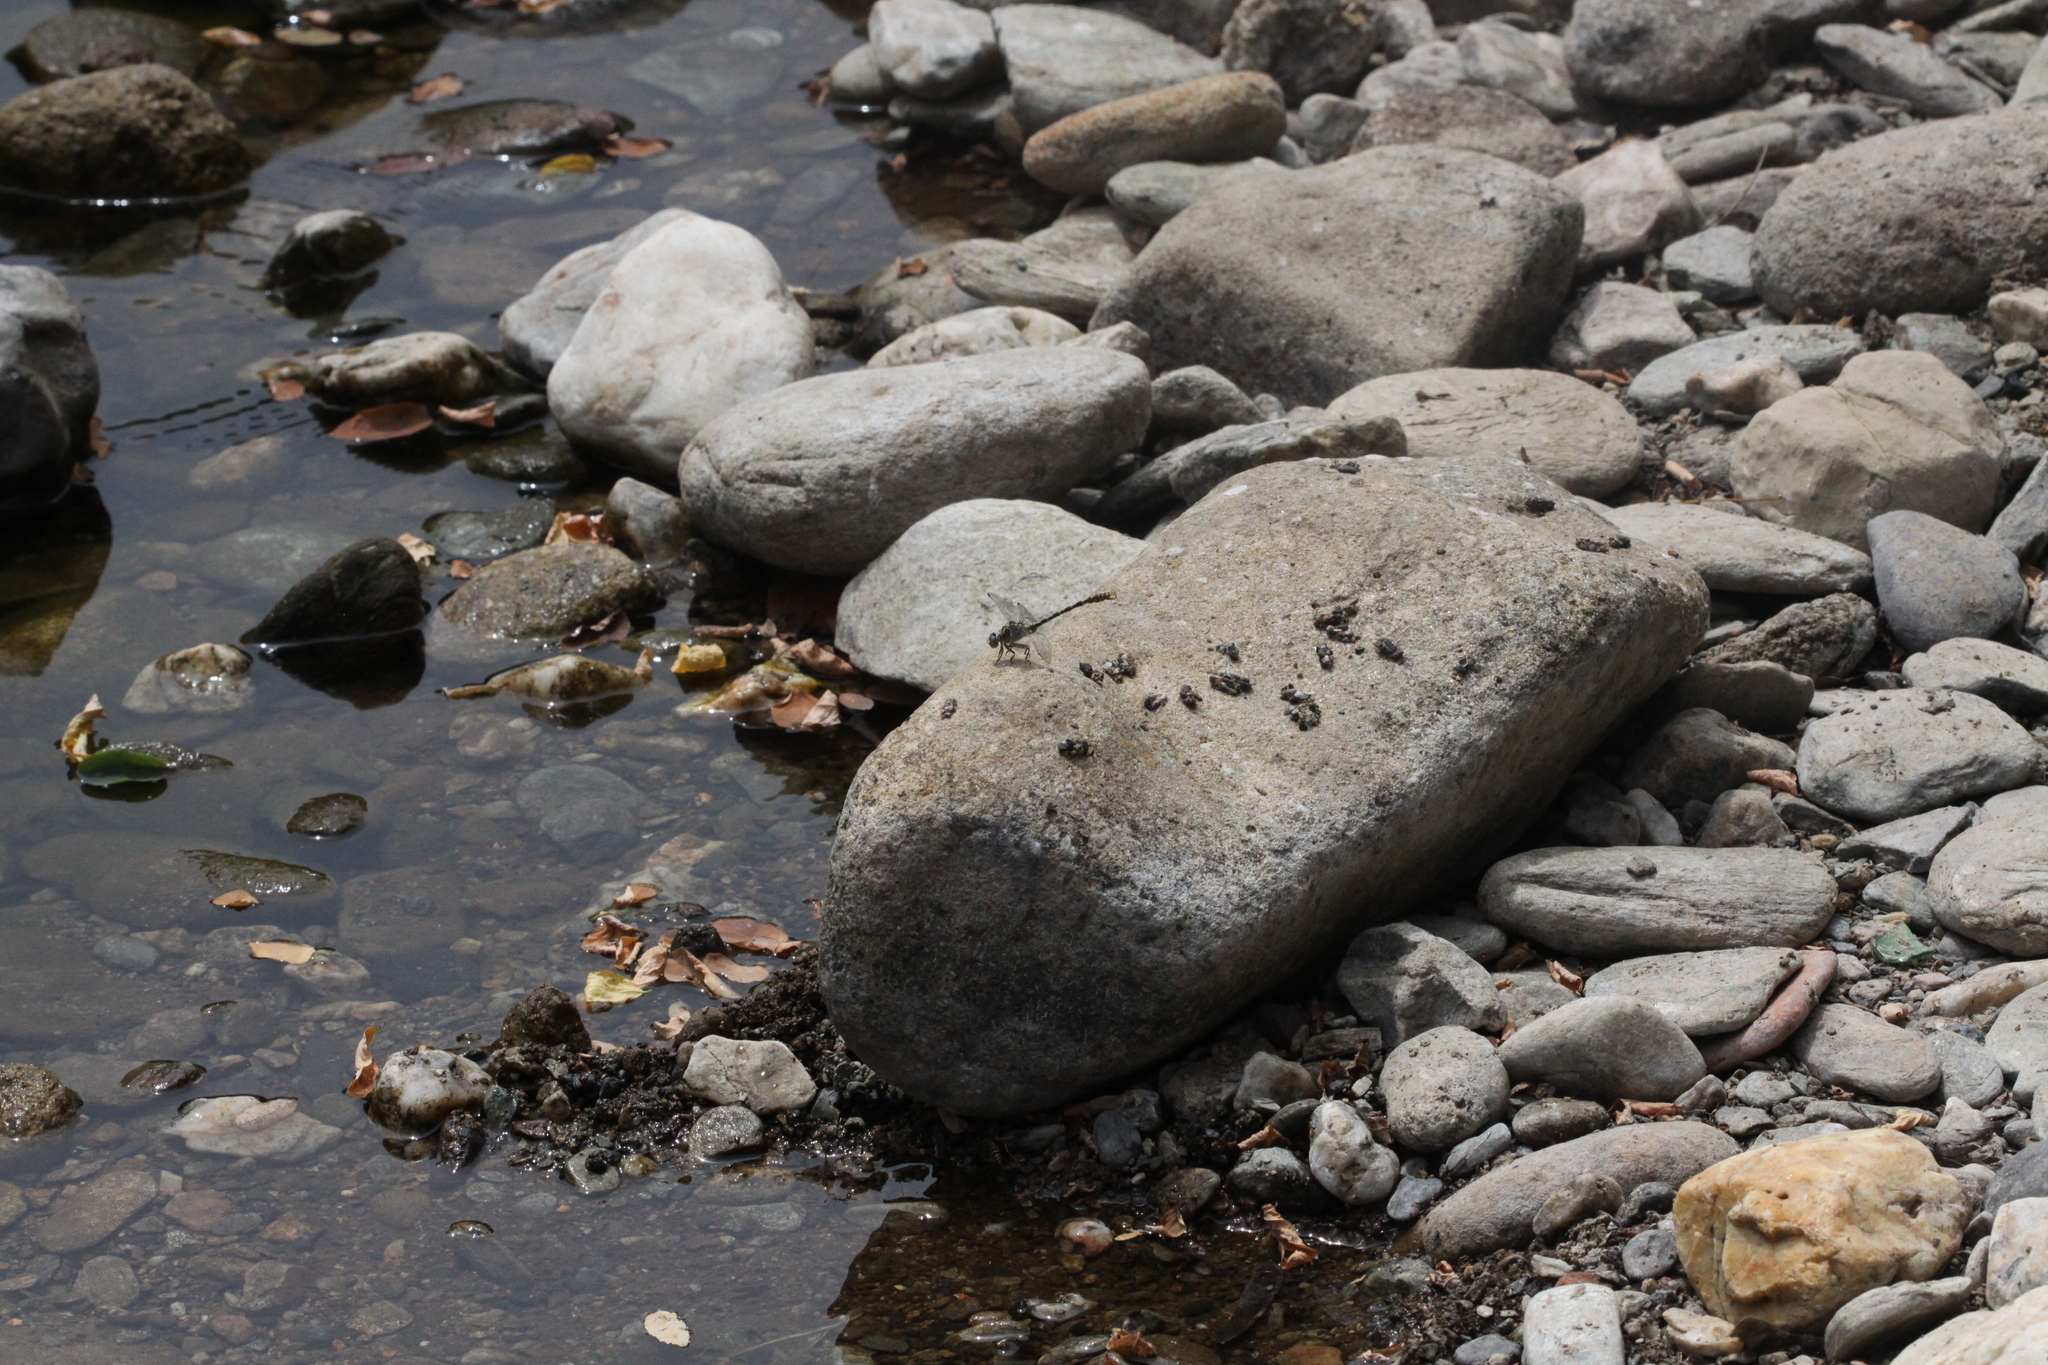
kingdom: Animalia
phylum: Arthropoda
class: Insecta
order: Odonata
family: Gomphidae
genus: Onychogomphus
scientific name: Onychogomphus forcipatus
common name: Small pincertail
